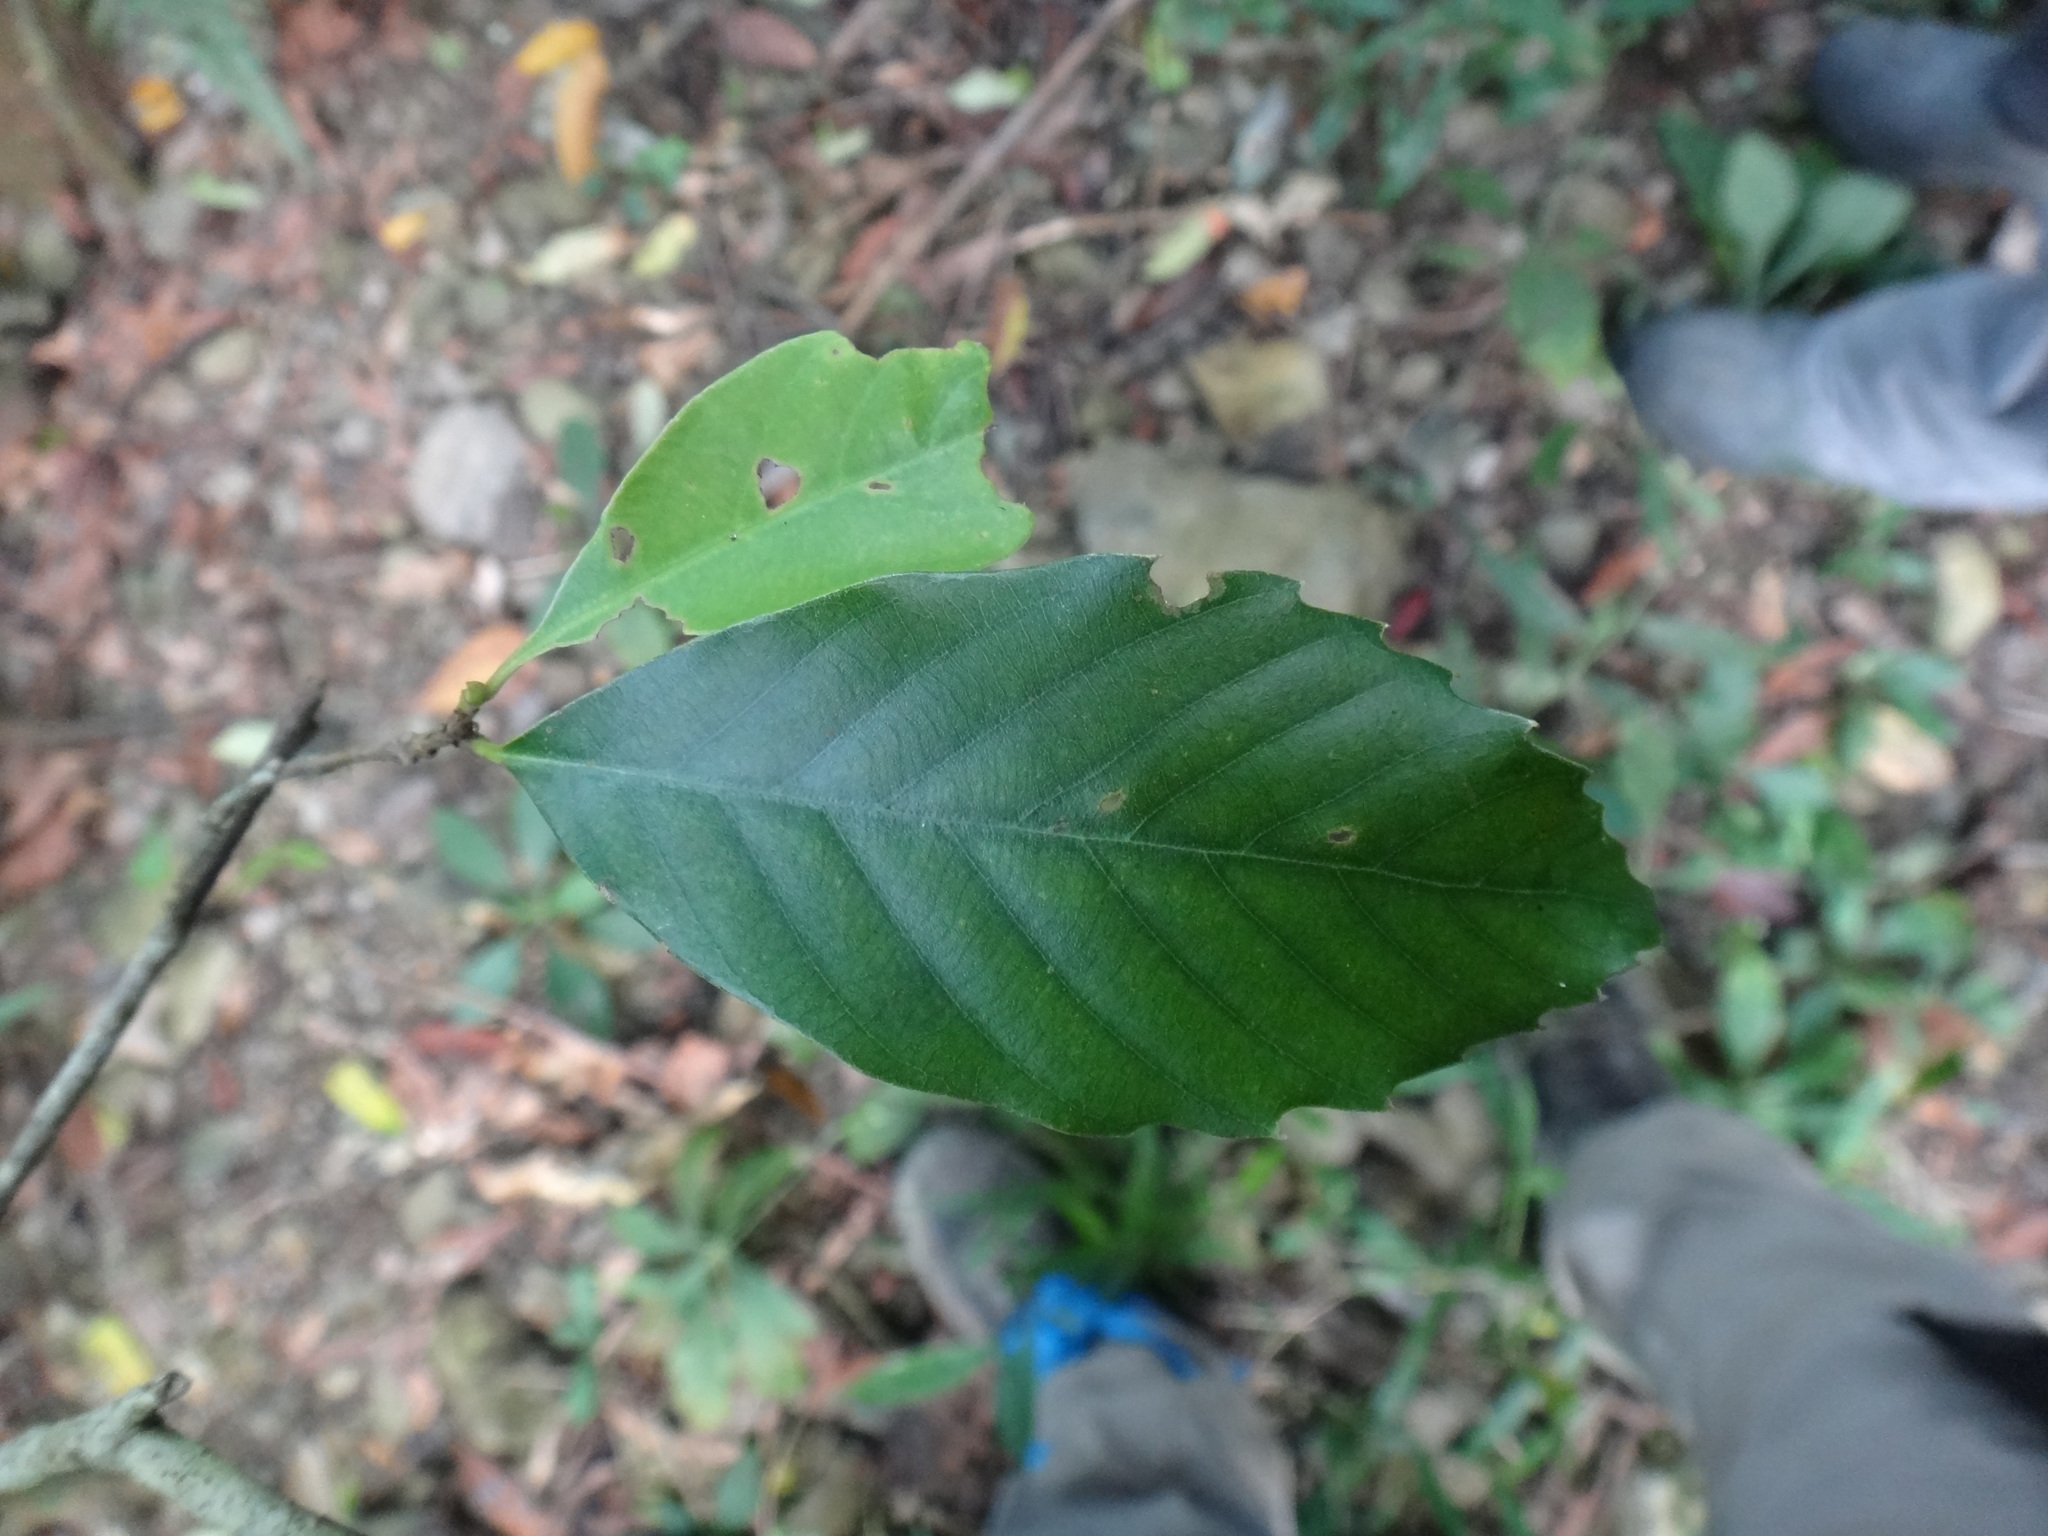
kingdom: Plantae
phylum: Tracheophyta
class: Magnoliopsida
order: Fagales
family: Fagaceae
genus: Quercus
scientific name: Quercus glauca
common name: Ring-cup oak
